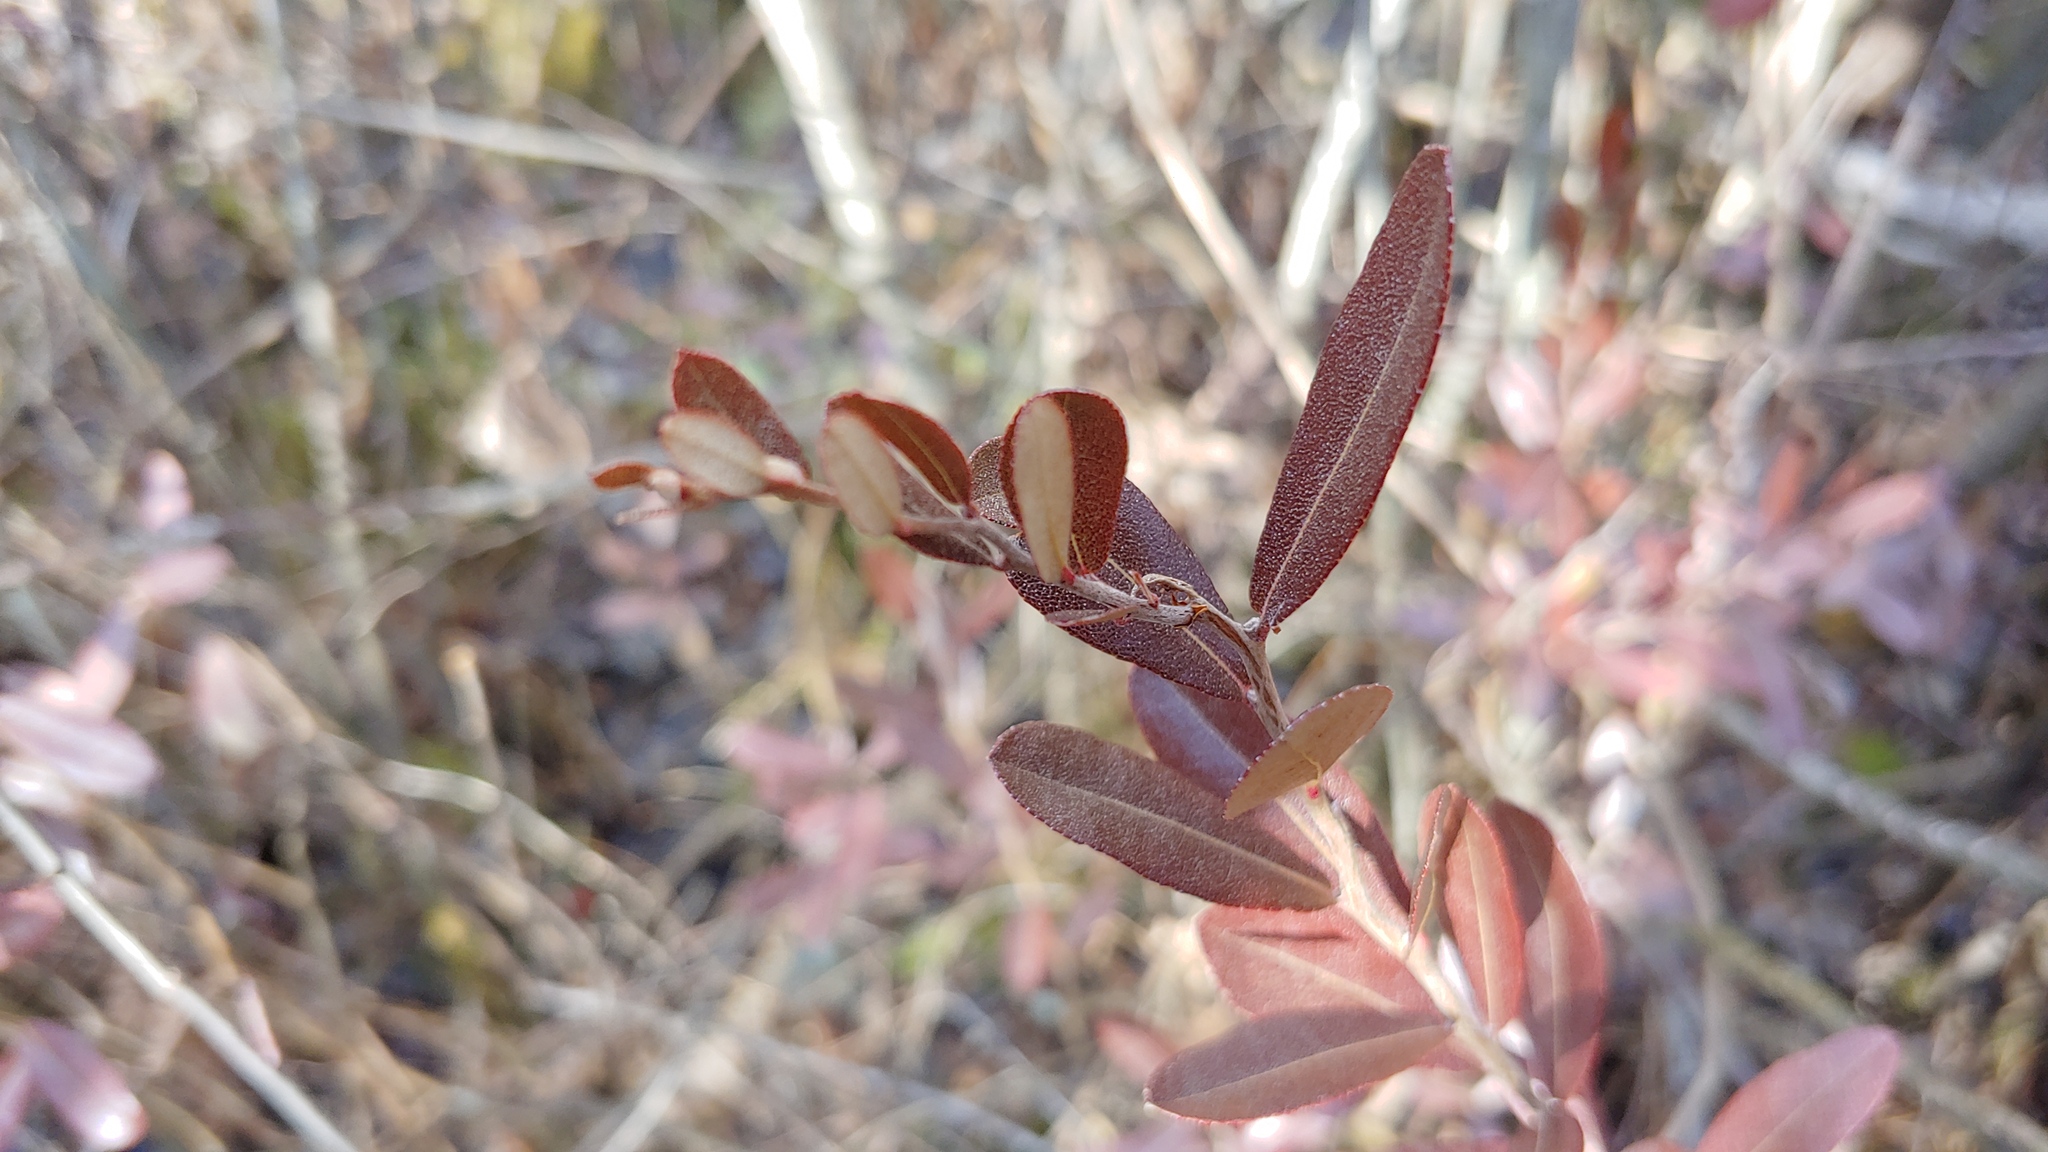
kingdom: Plantae
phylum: Tracheophyta
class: Magnoliopsida
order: Ericales
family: Ericaceae
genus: Chamaedaphne
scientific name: Chamaedaphne calyculata
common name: Leatherleaf
